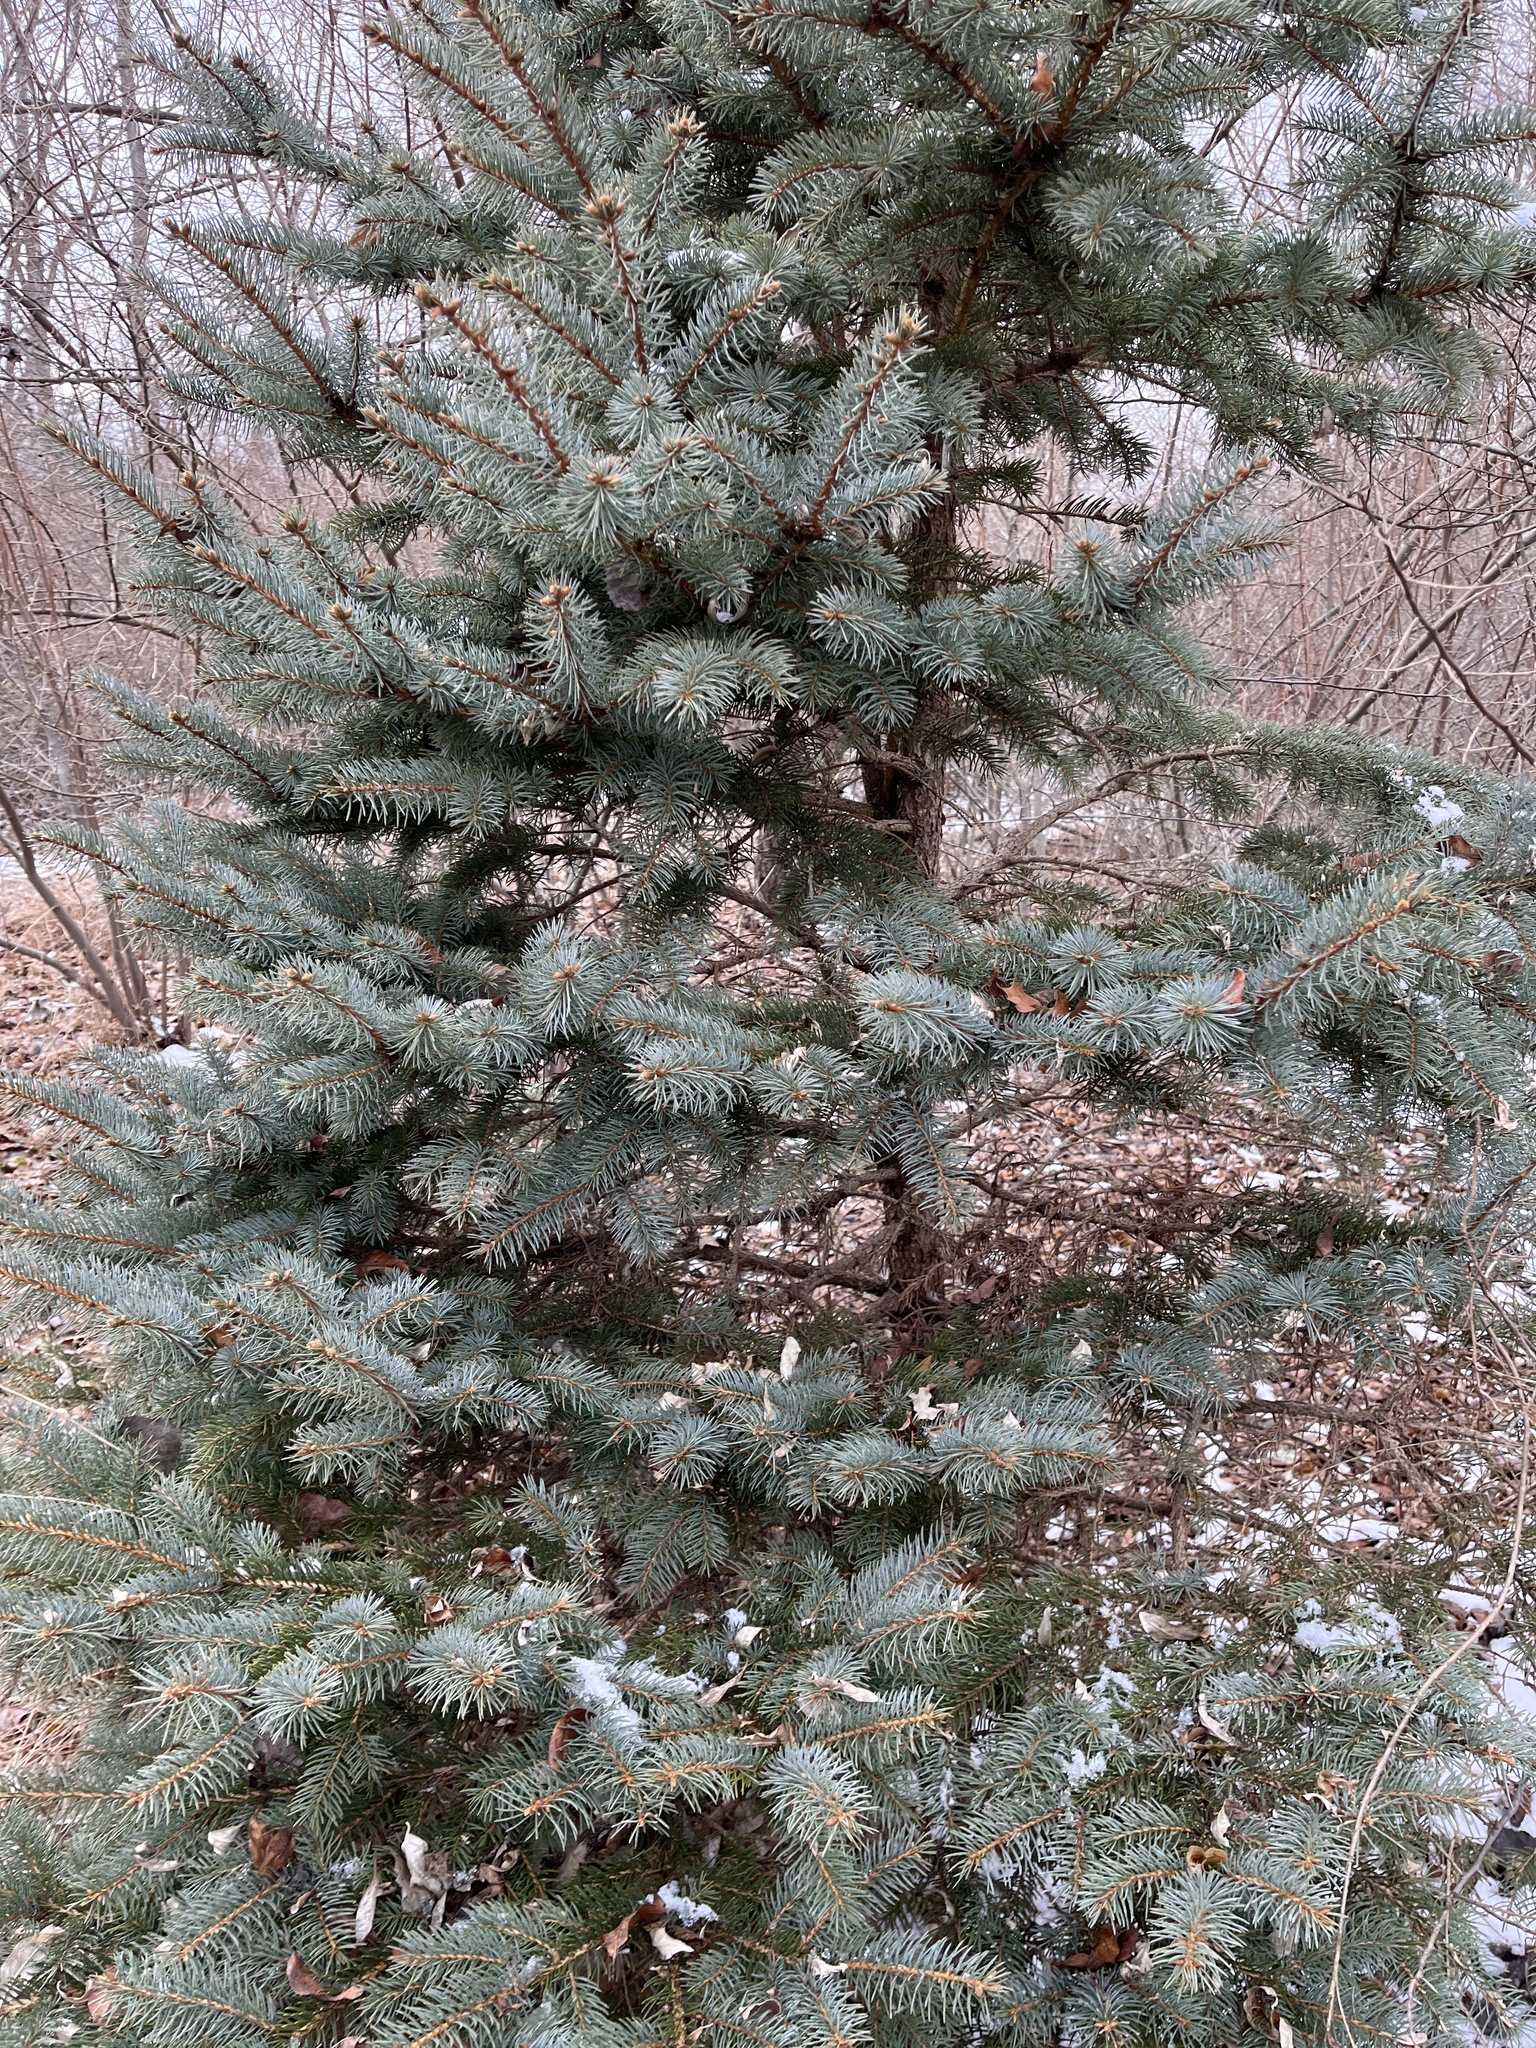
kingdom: Plantae
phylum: Tracheophyta
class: Pinopsida
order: Pinales
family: Pinaceae
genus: Picea
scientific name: Picea pungens
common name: Colorado spruce
